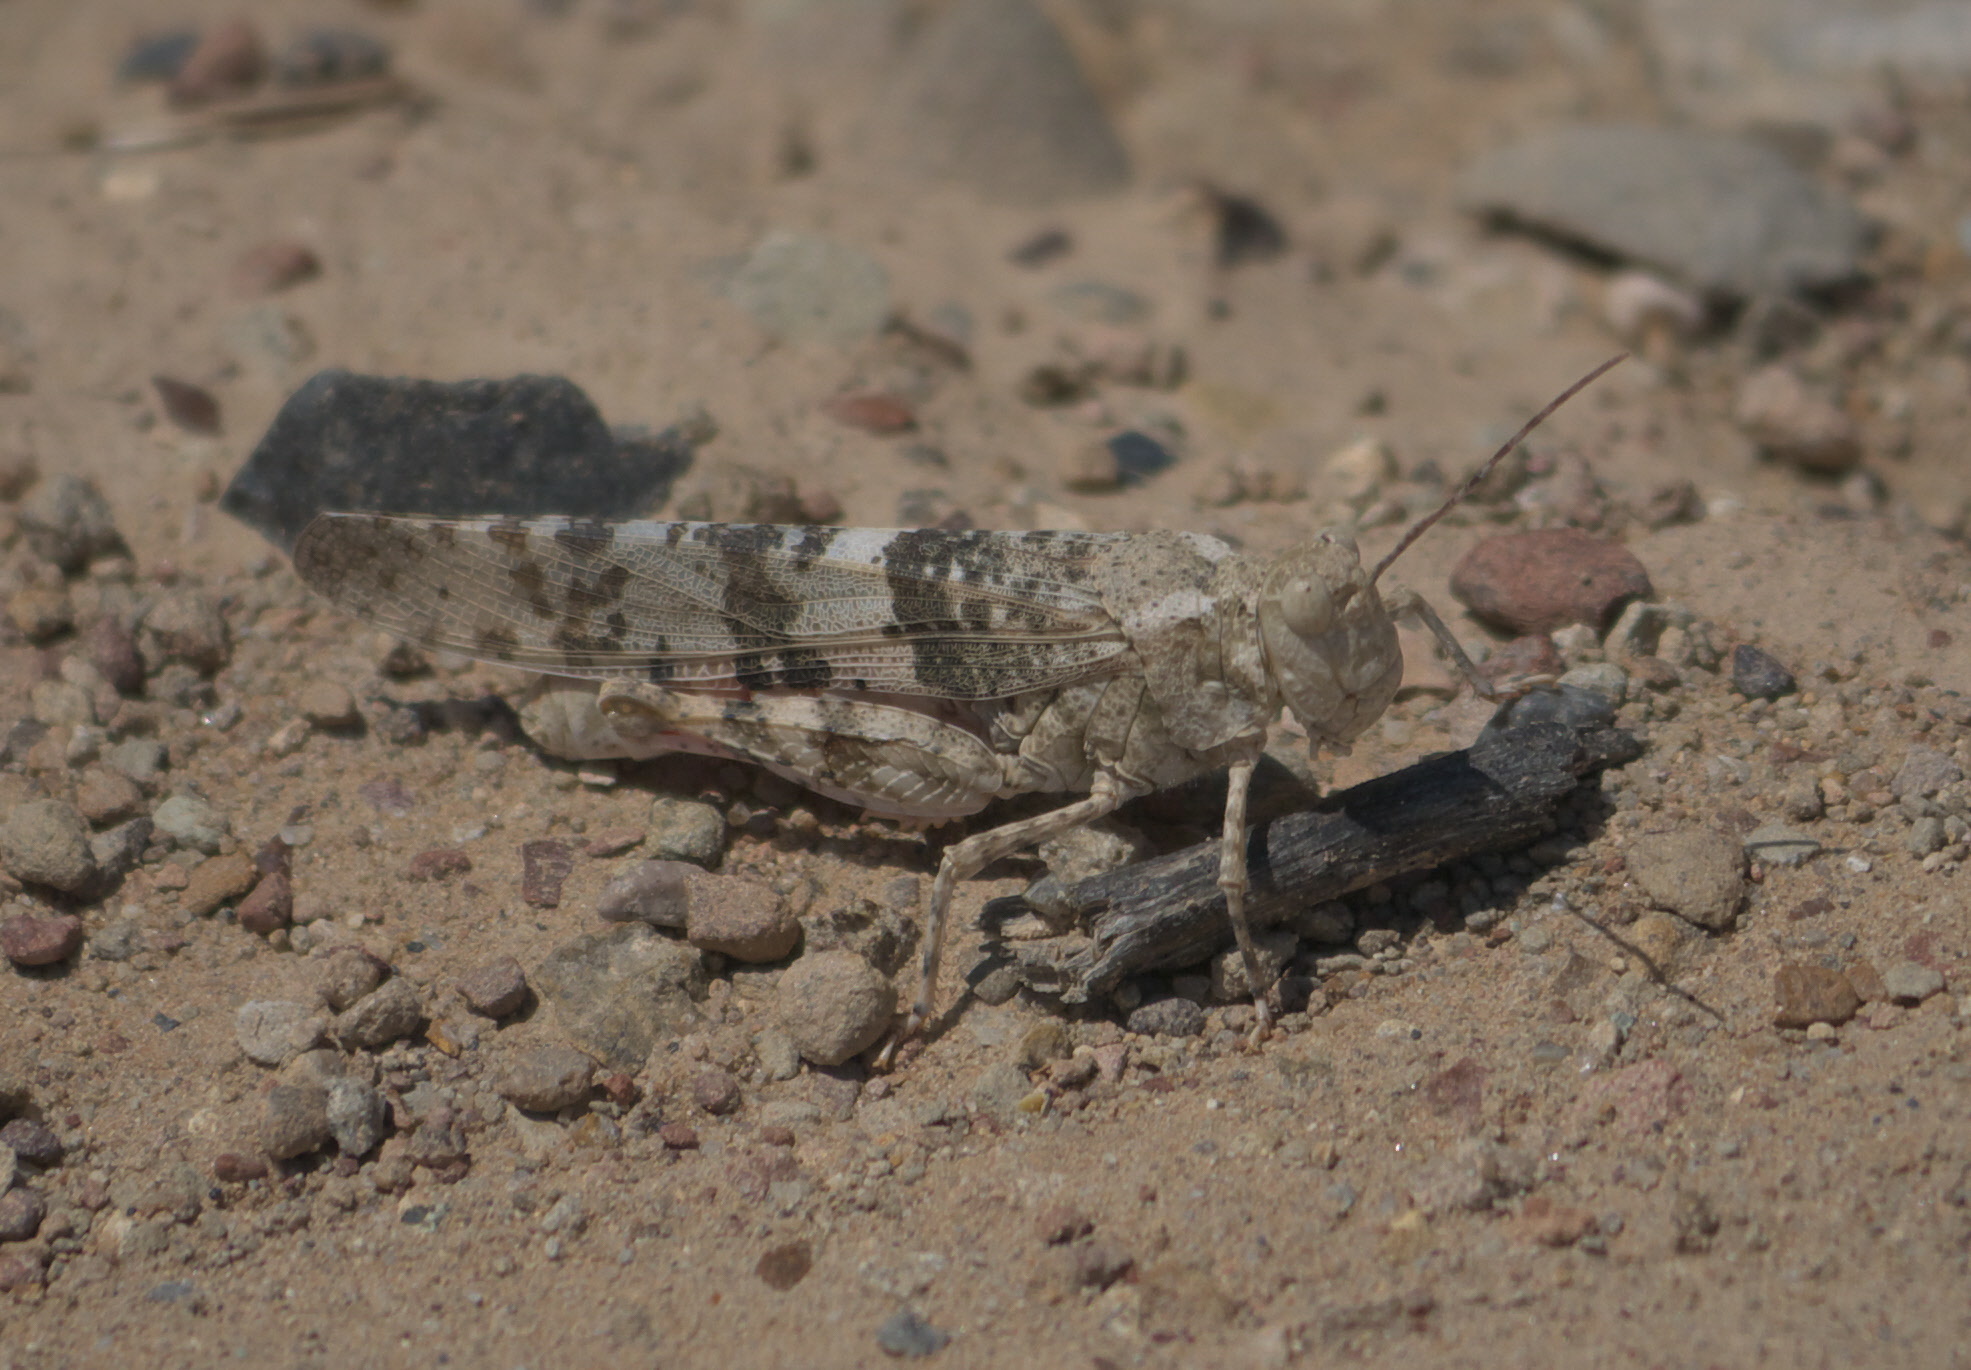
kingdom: Animalia
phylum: Arthropoda
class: Insecta
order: Orthoptera
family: Acrididae
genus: Trimerotropis
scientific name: Trimerotropis latifasciata
